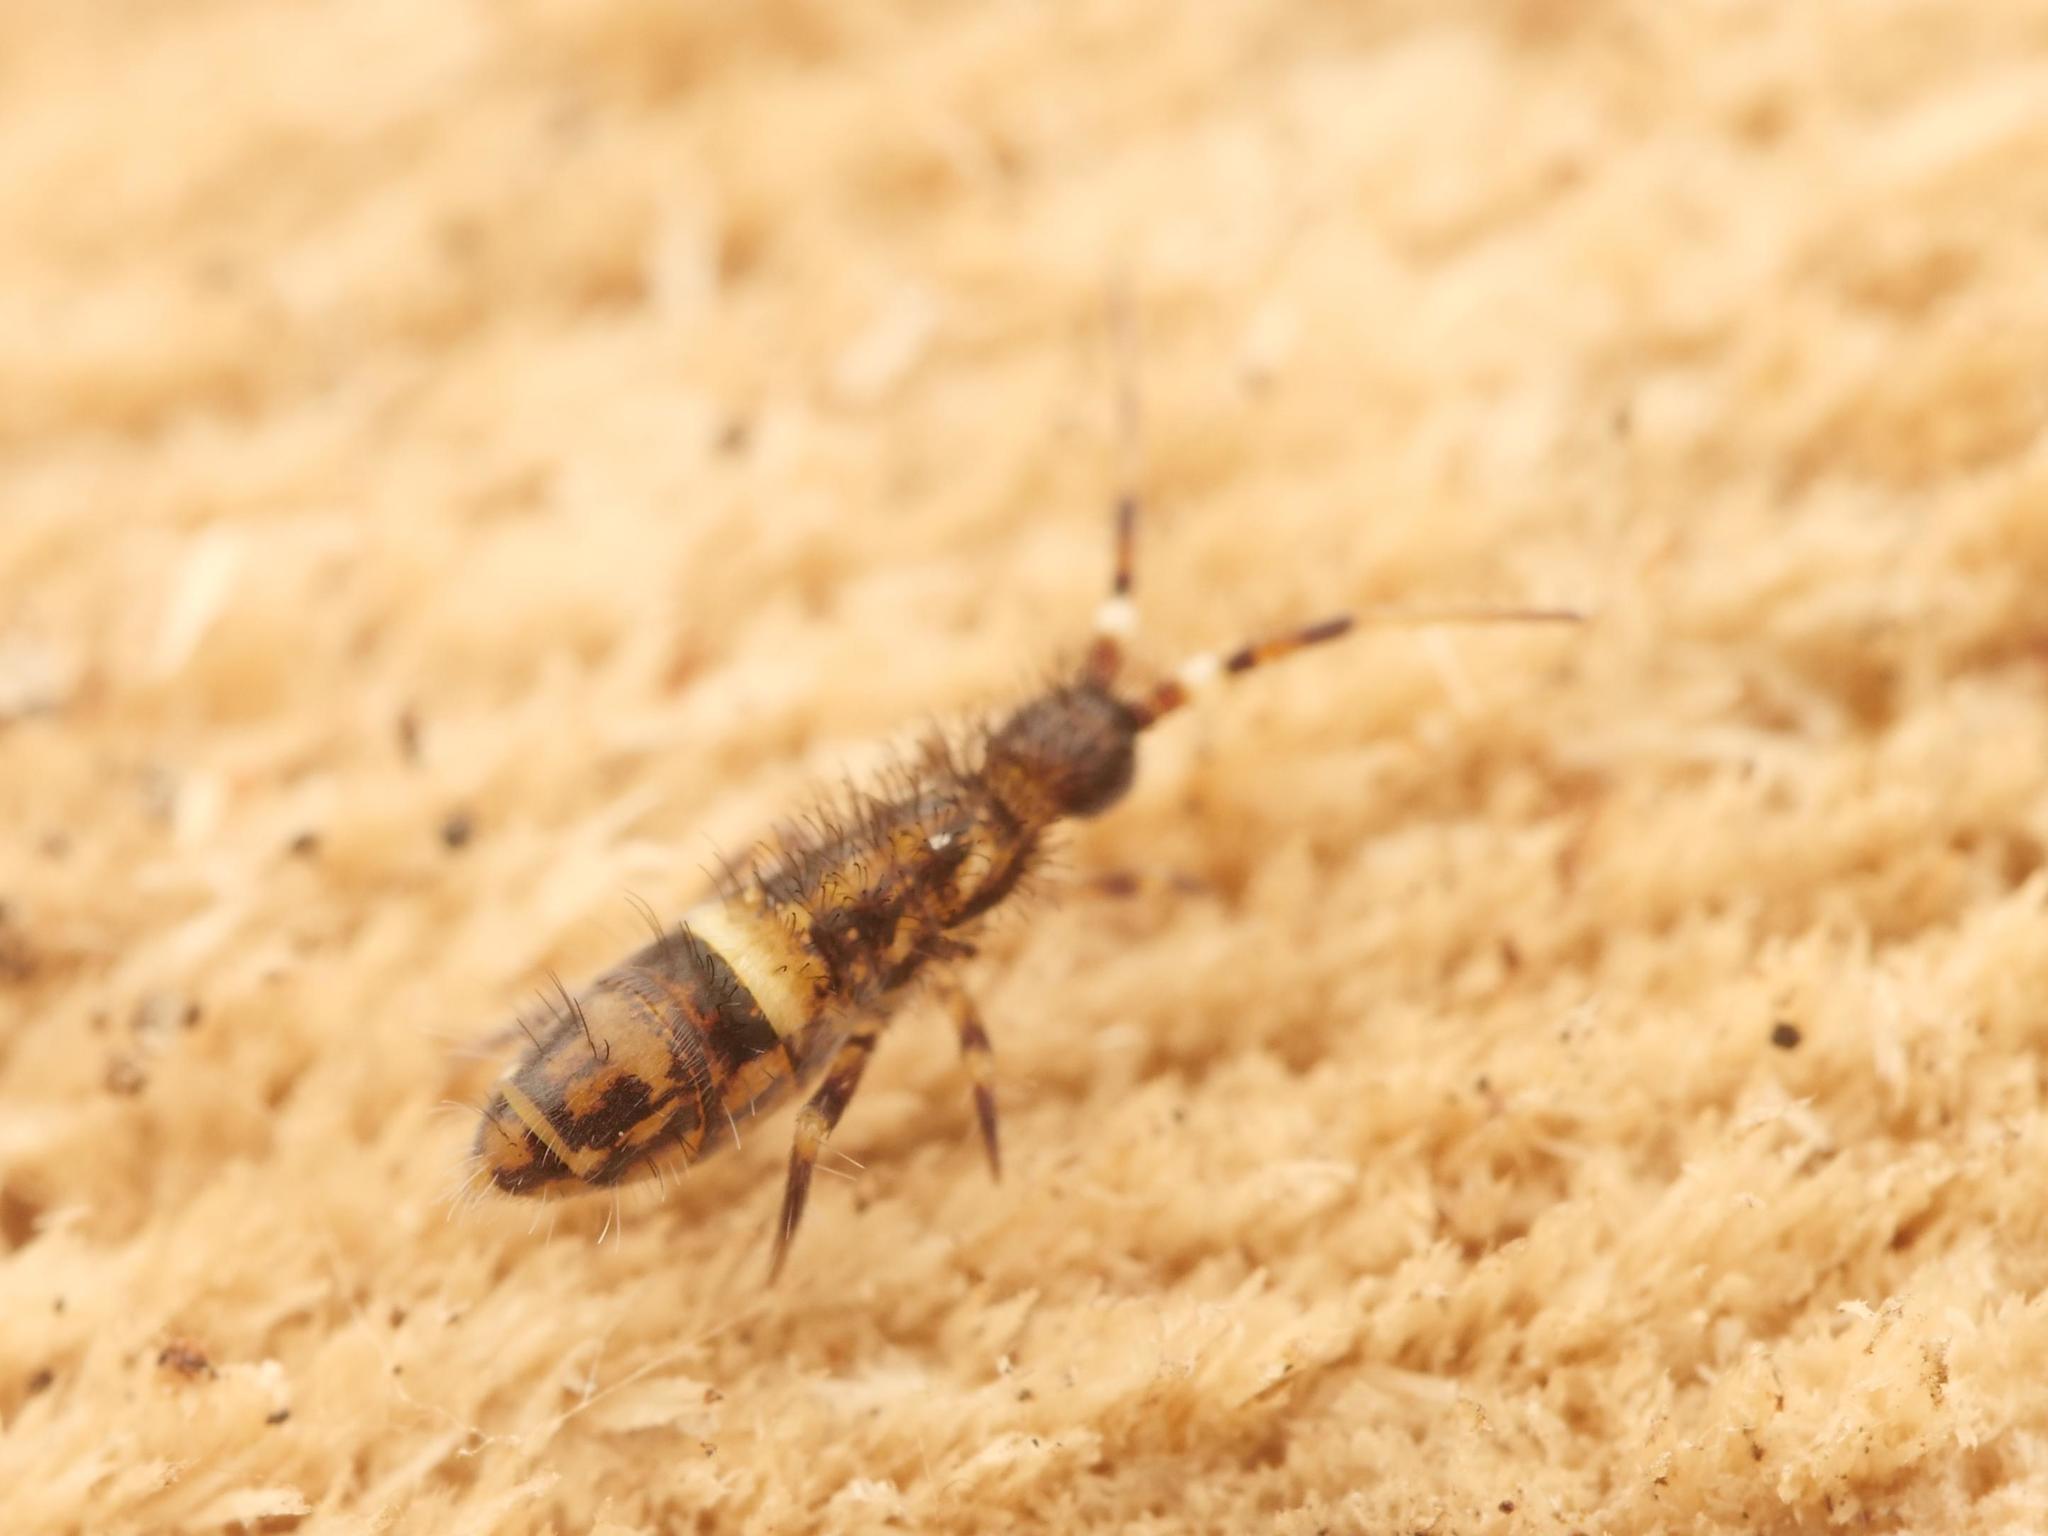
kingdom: Animalia
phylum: Arthropoda
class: Collembola
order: Entomobryomorpha
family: Orchesellidae
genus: Orchesella
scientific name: Orchesella cincta
